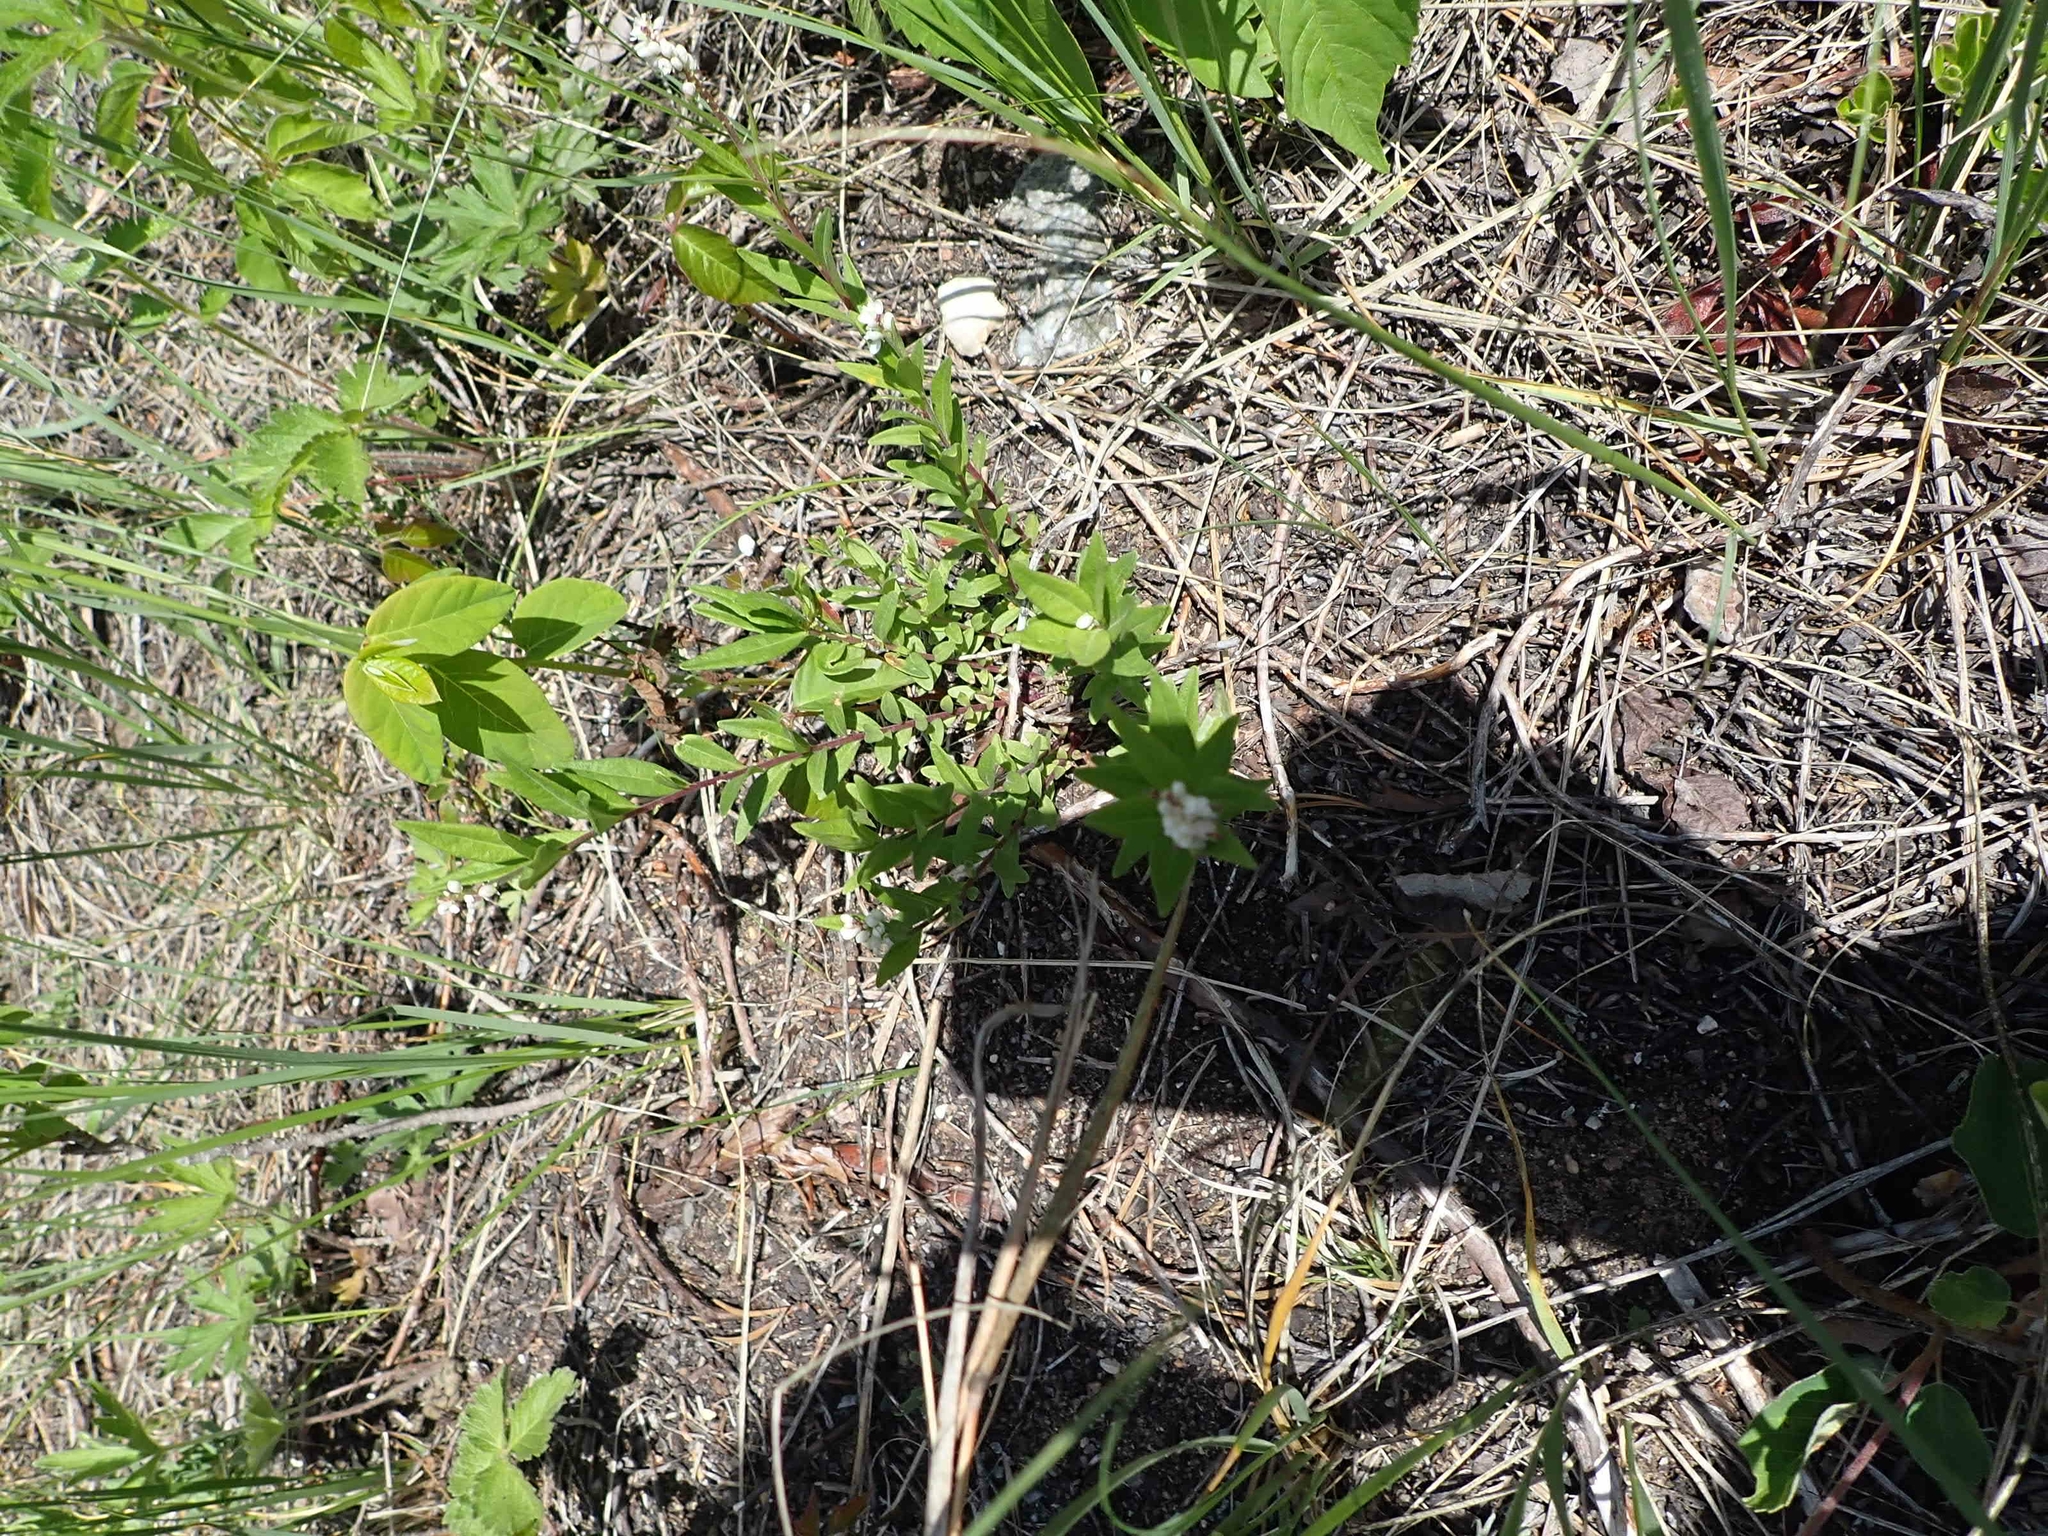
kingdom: Plantae
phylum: Tracheophyta
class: Magnoliopsida
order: Fabales
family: Polygalaceae
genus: Polygala
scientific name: Polygala senega
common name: Seneca snakeroot
